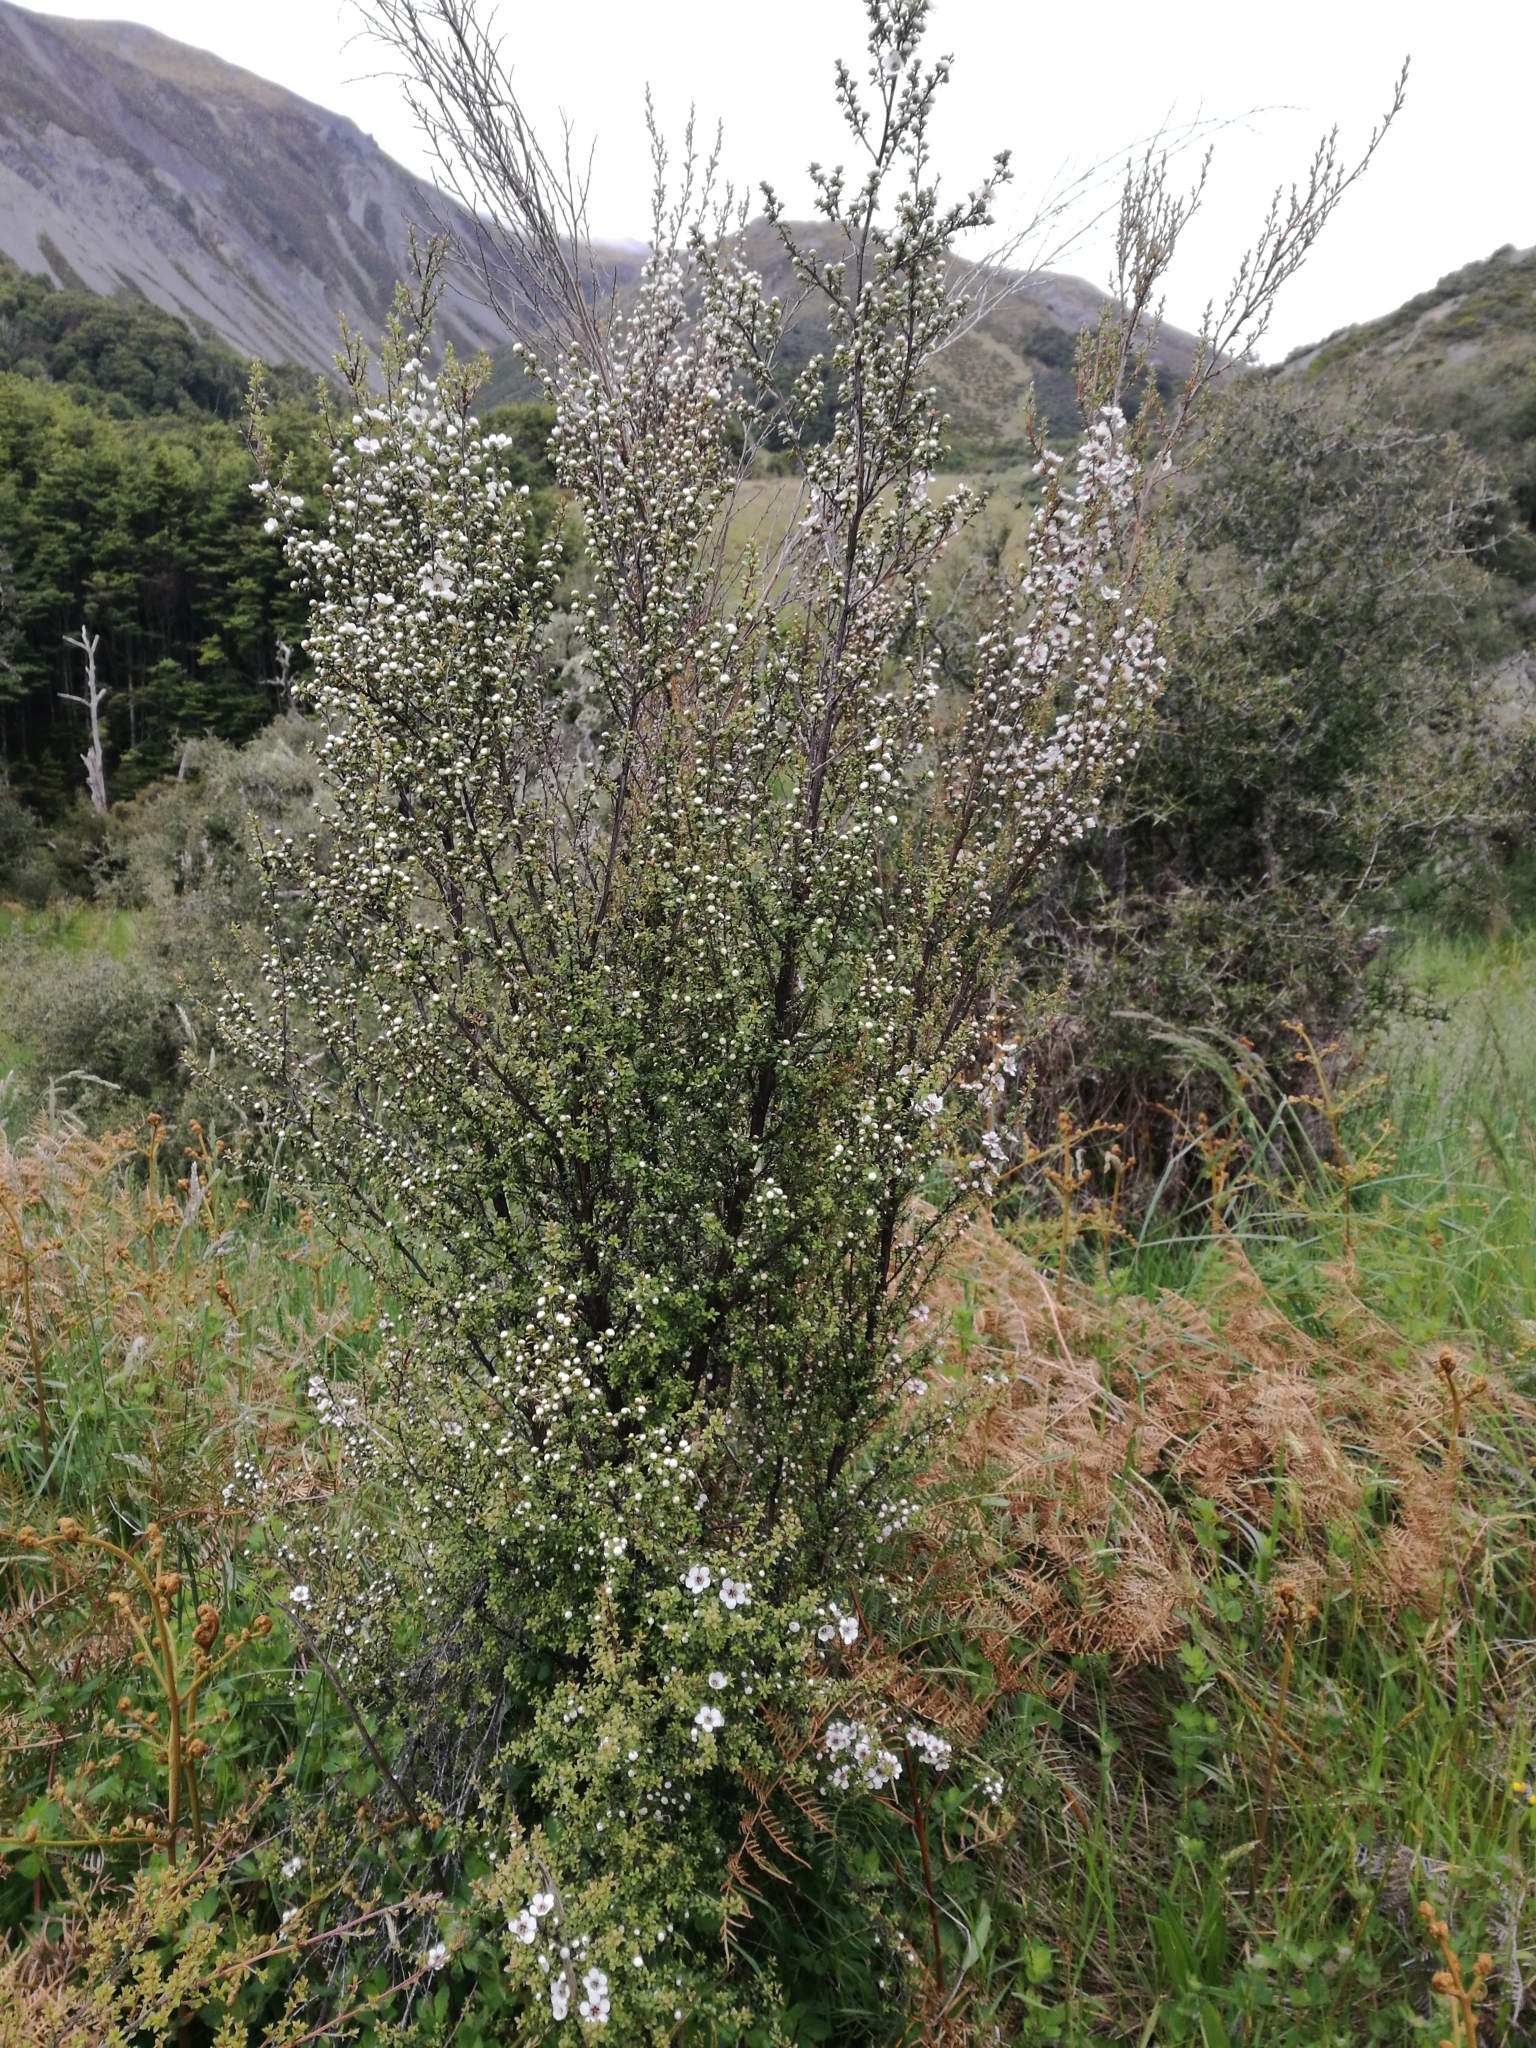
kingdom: Plantae
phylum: Tracheophyta
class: Magnoliopsida
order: Myrtales
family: Myrtaceae
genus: Leptospermum
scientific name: Leptospermum scoparium
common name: Broom tea-tree
